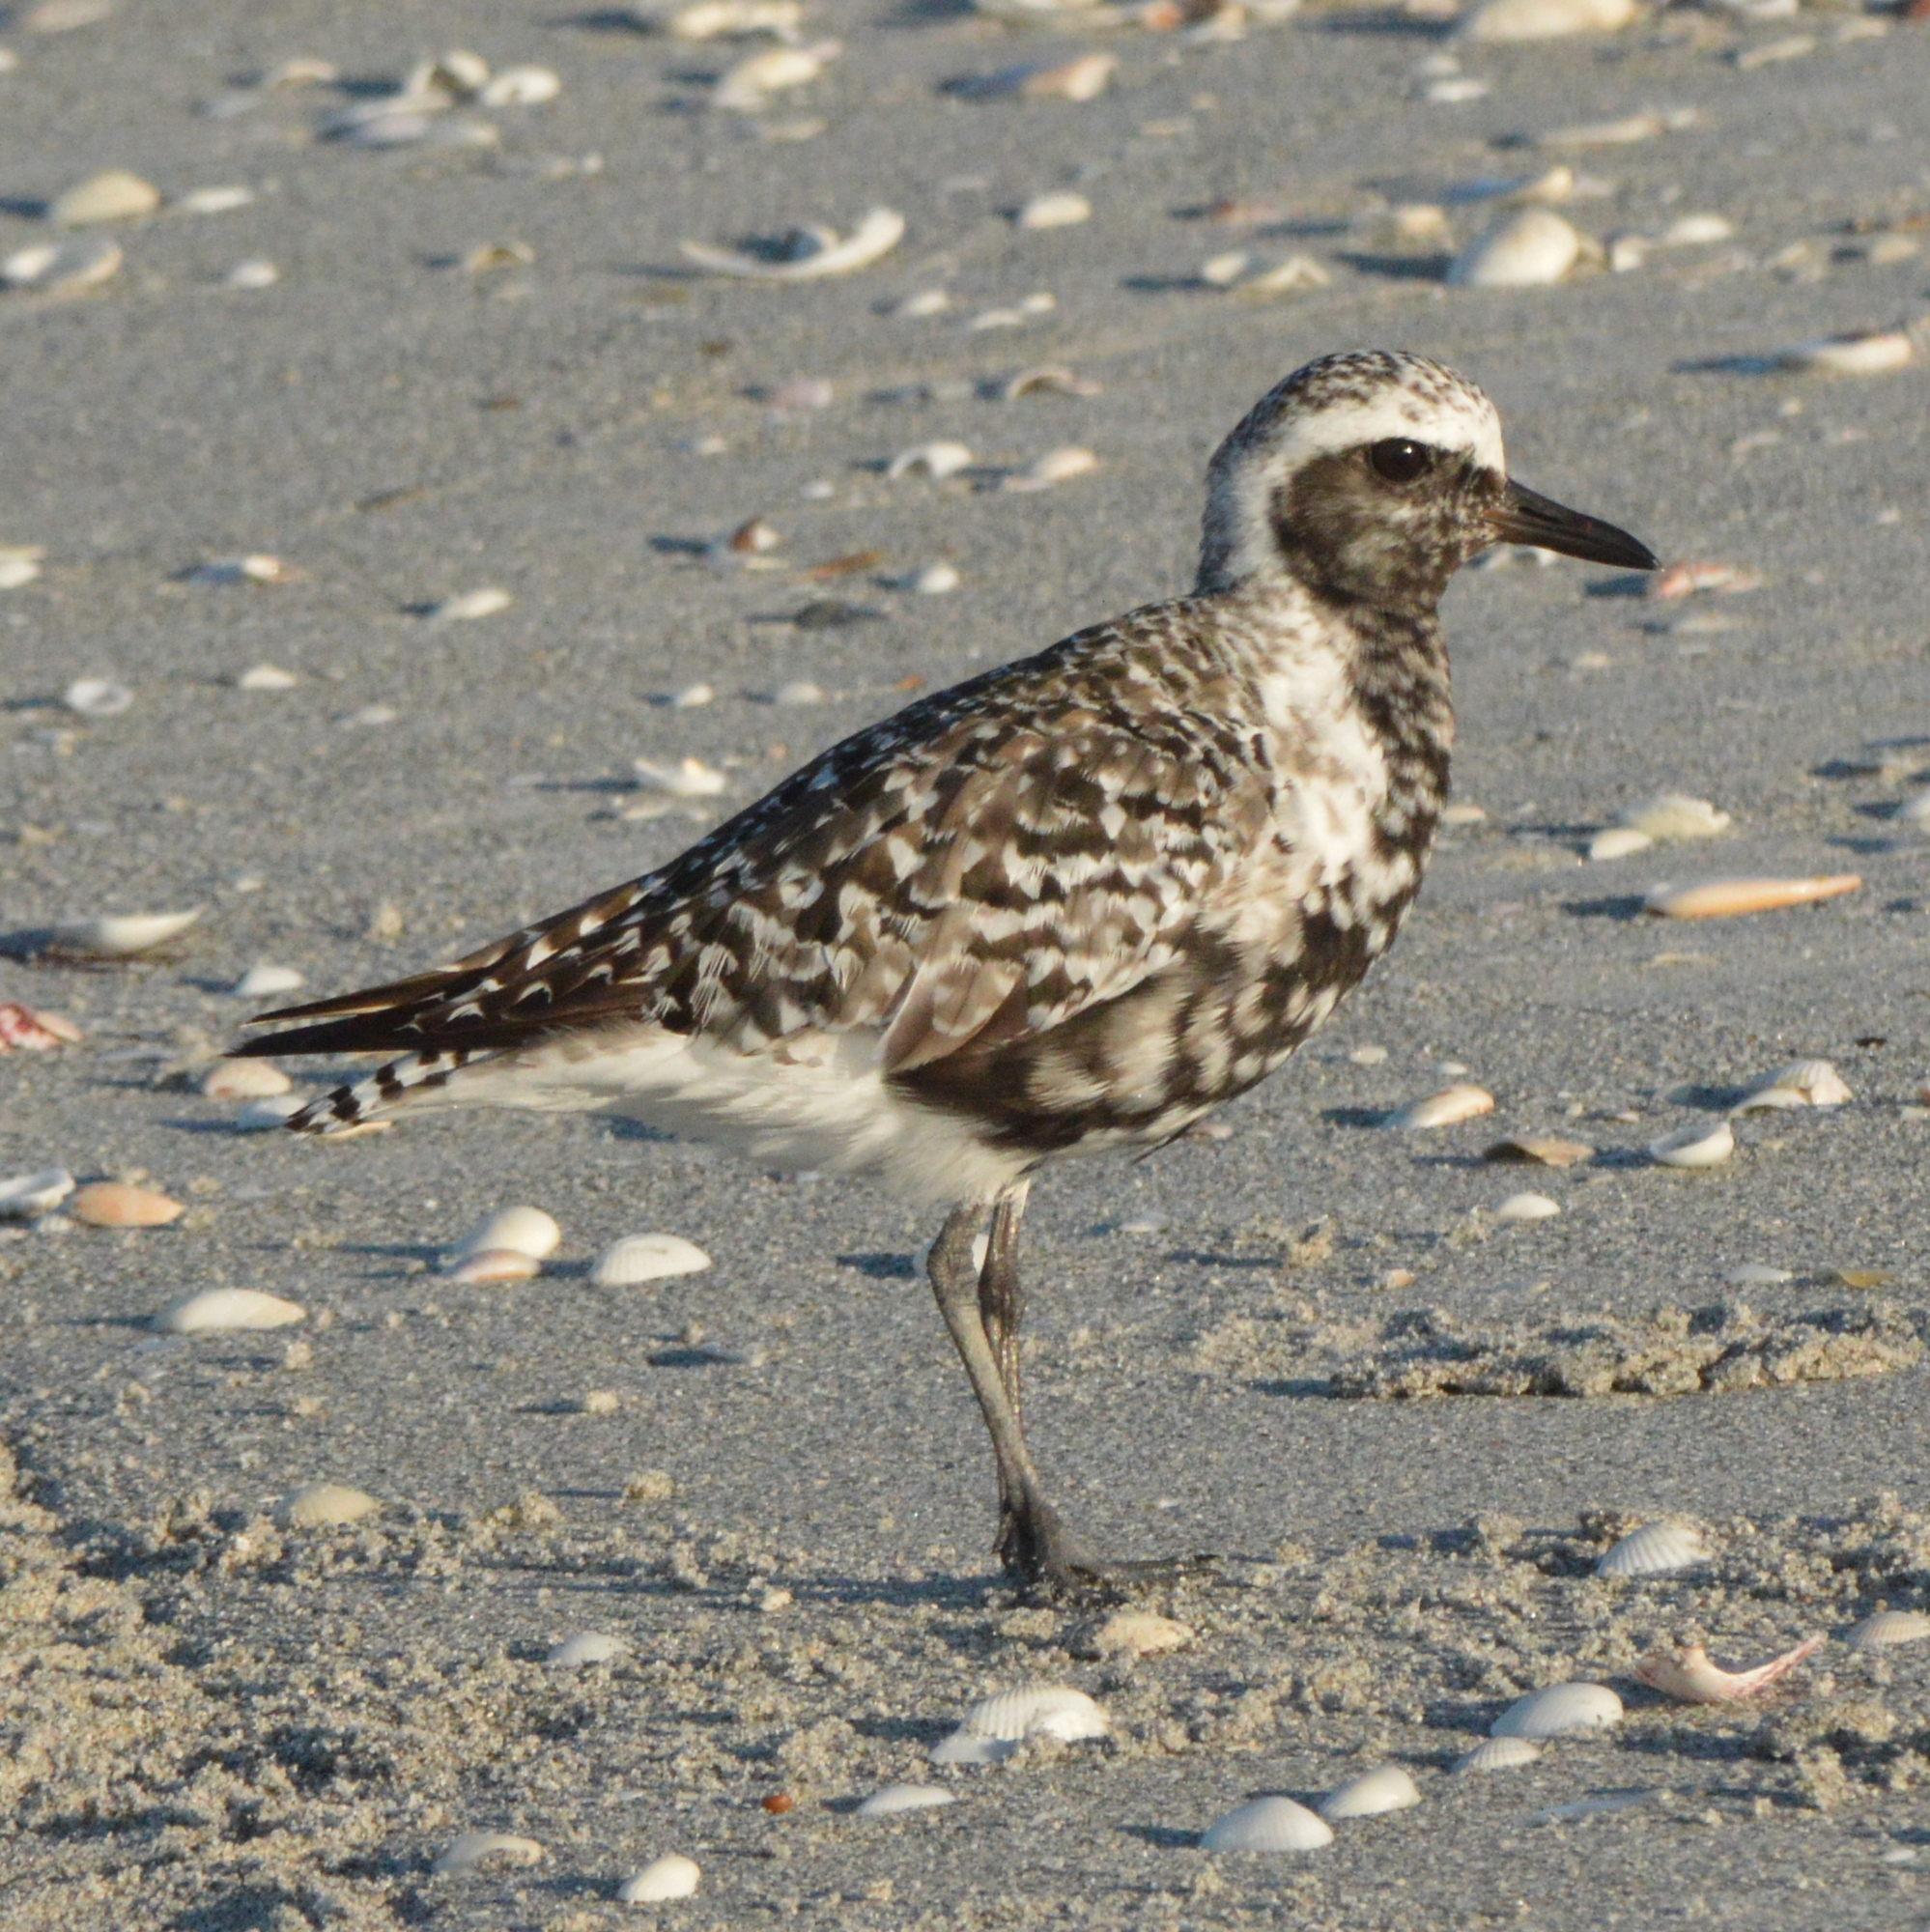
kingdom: Animalia
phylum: Chordata
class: Aves
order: Charadriiformes
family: Charadriidae
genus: Pluvialis
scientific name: Pluvialis squatarola
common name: Grey plover
